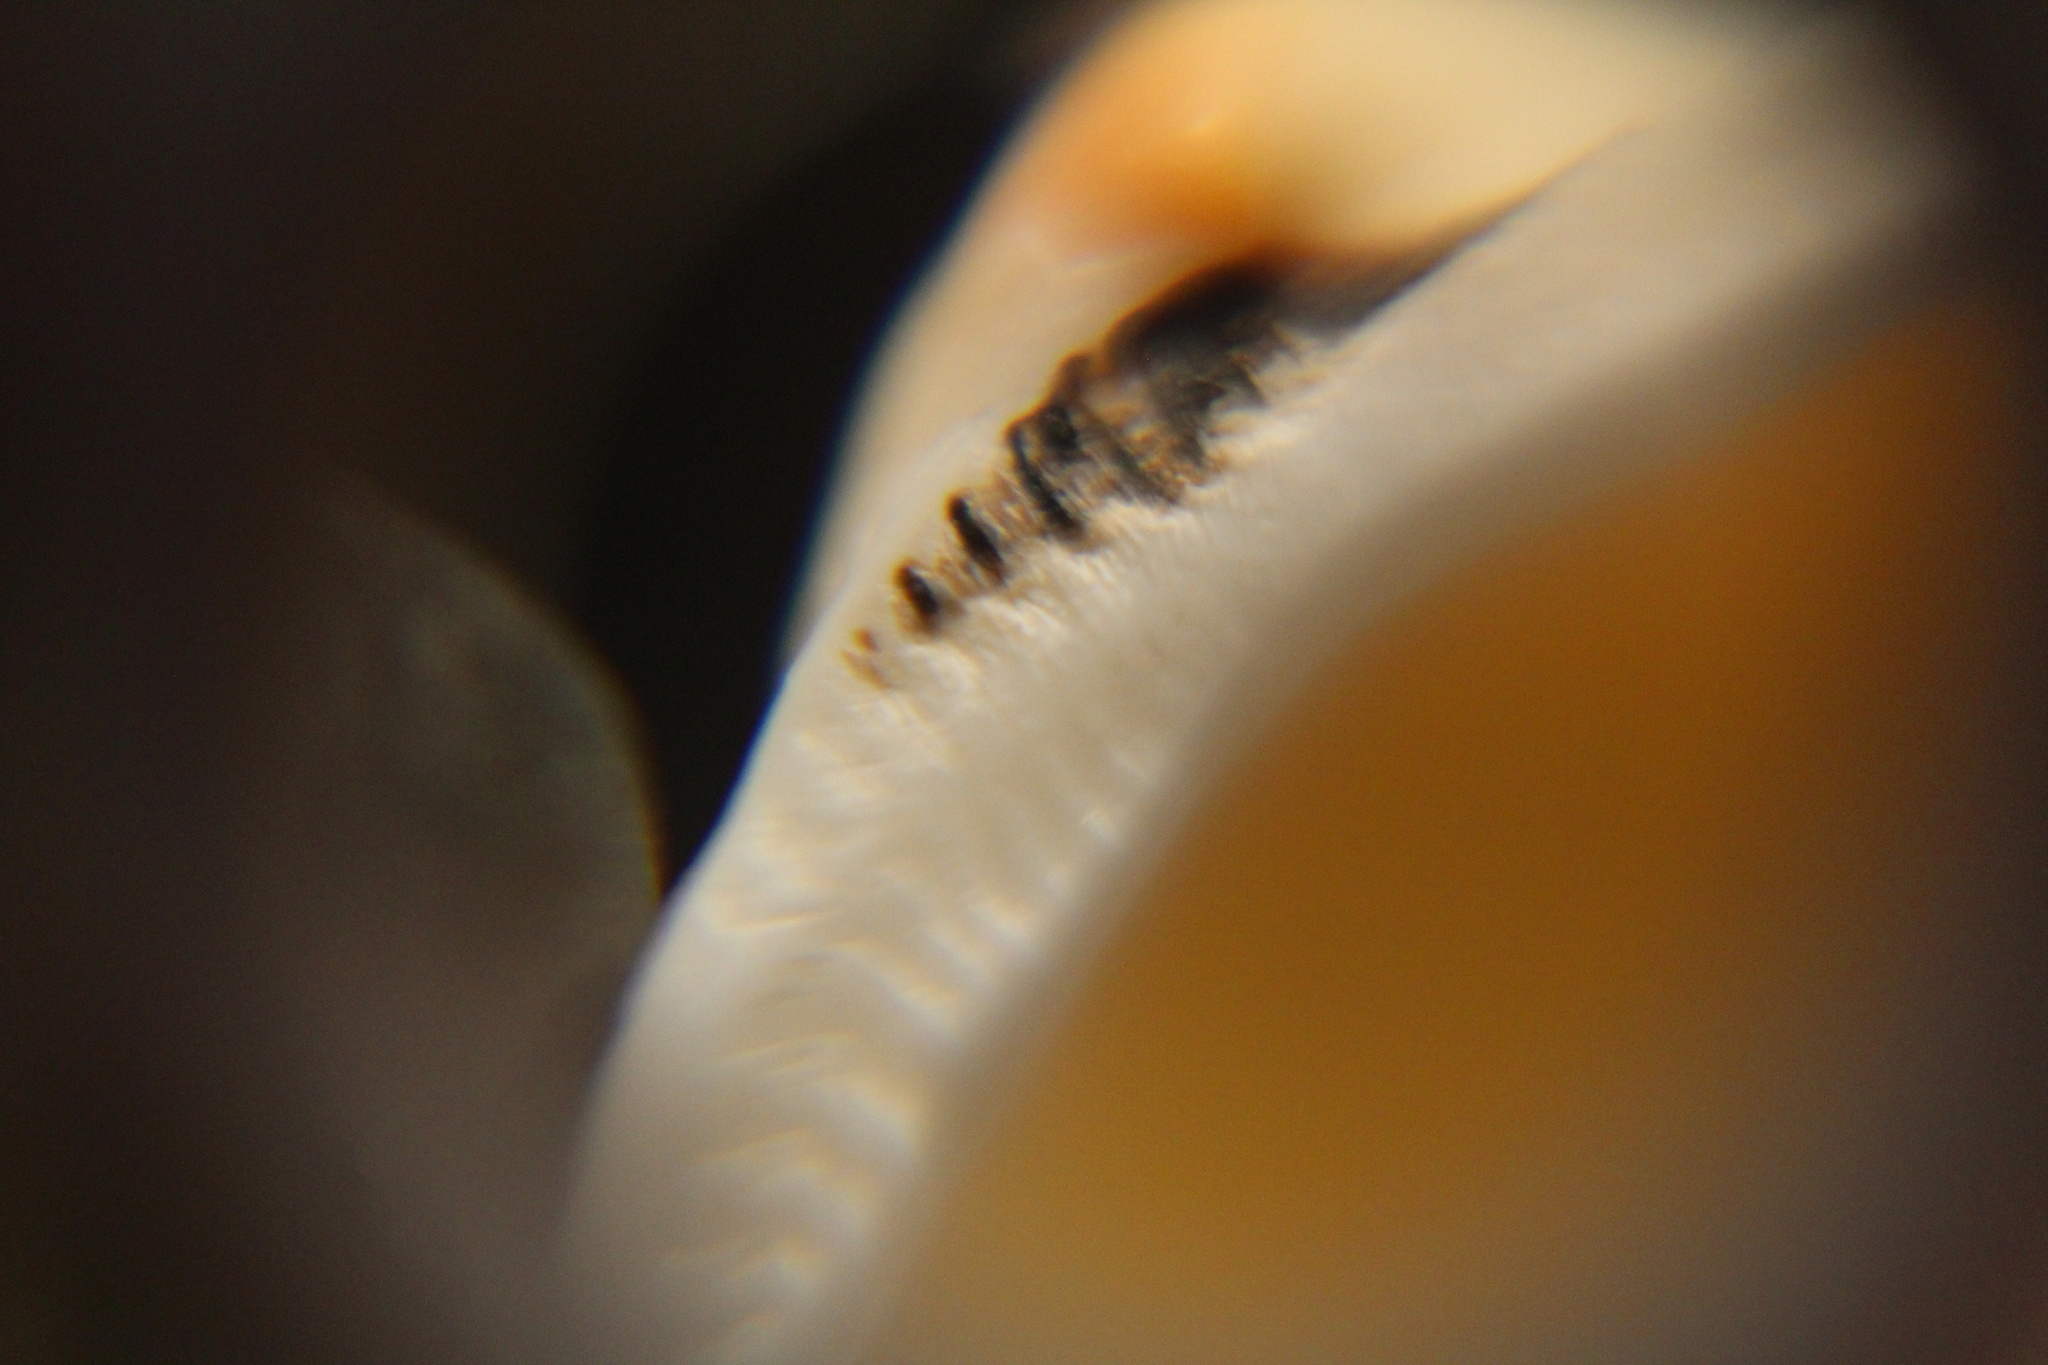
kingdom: Animalia
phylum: Mollusca
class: Bivalvia
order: Arcida
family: Noetiidae
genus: Noetia
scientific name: Noetia ponderosa
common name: Ponderous ark
